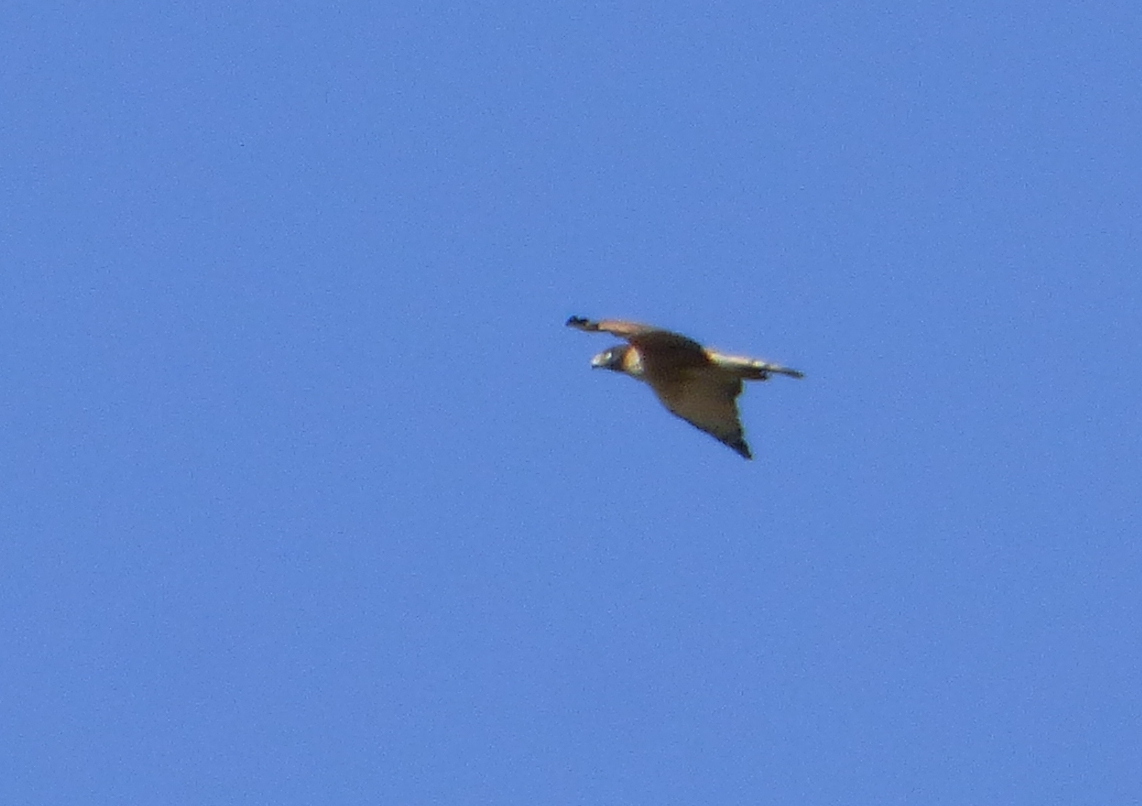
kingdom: Animalia
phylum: Chordata
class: Aves
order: Accipitriformes
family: Accipitridae
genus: Rupornis
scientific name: Rupornis magnirostris
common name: Roadside hawk
